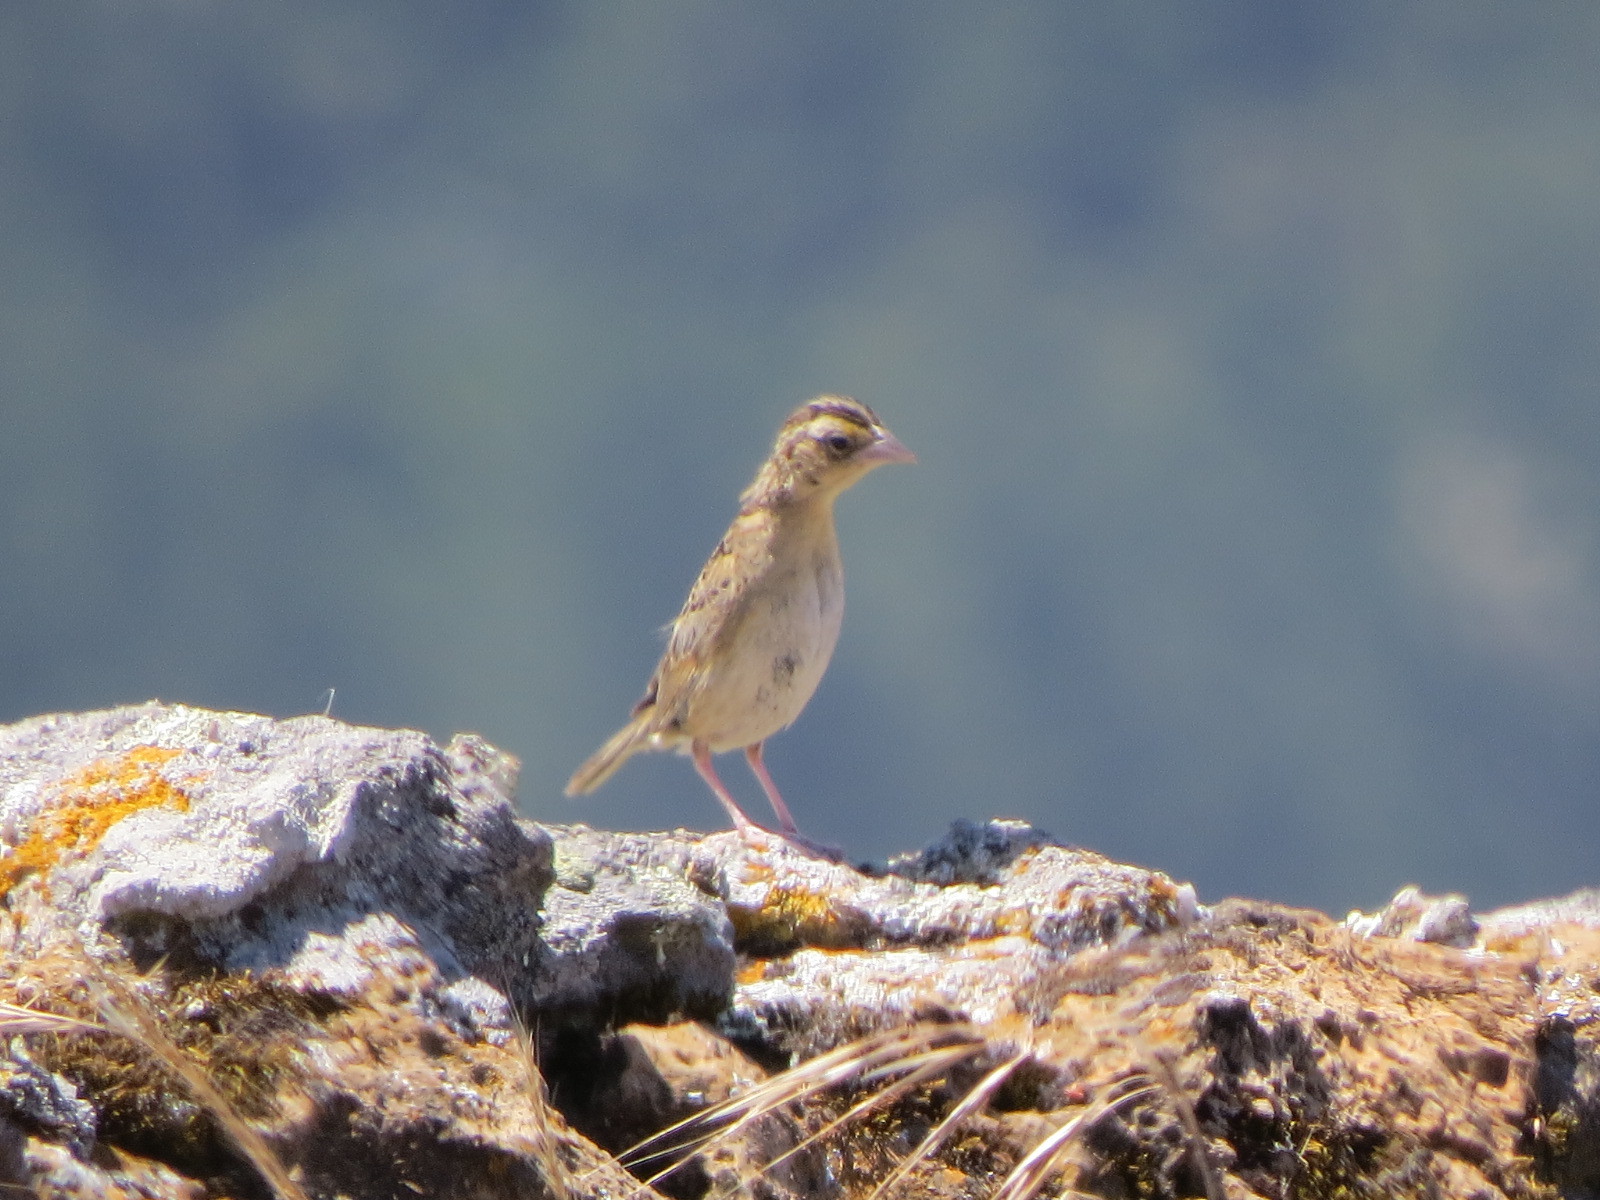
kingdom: Animalia
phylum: Chordata
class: Aves
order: Passeriformes
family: Passerellidae
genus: Ammodramus
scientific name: Ammodramus savannarum
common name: Grasshopper sparrow
